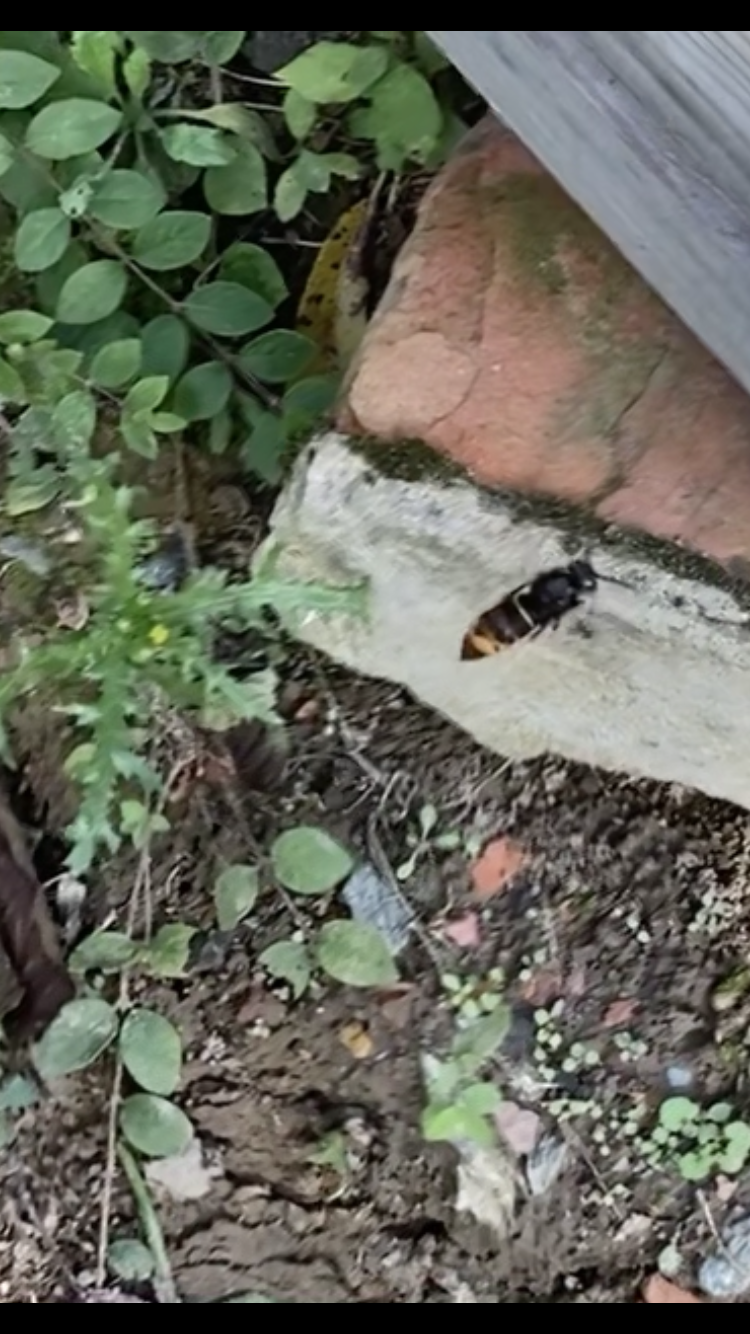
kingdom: Animalia
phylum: Arthropoda
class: Insecta
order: Hymenoptera
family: Vespidae
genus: Vespa
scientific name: Vespa velutina
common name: Asian hornet
